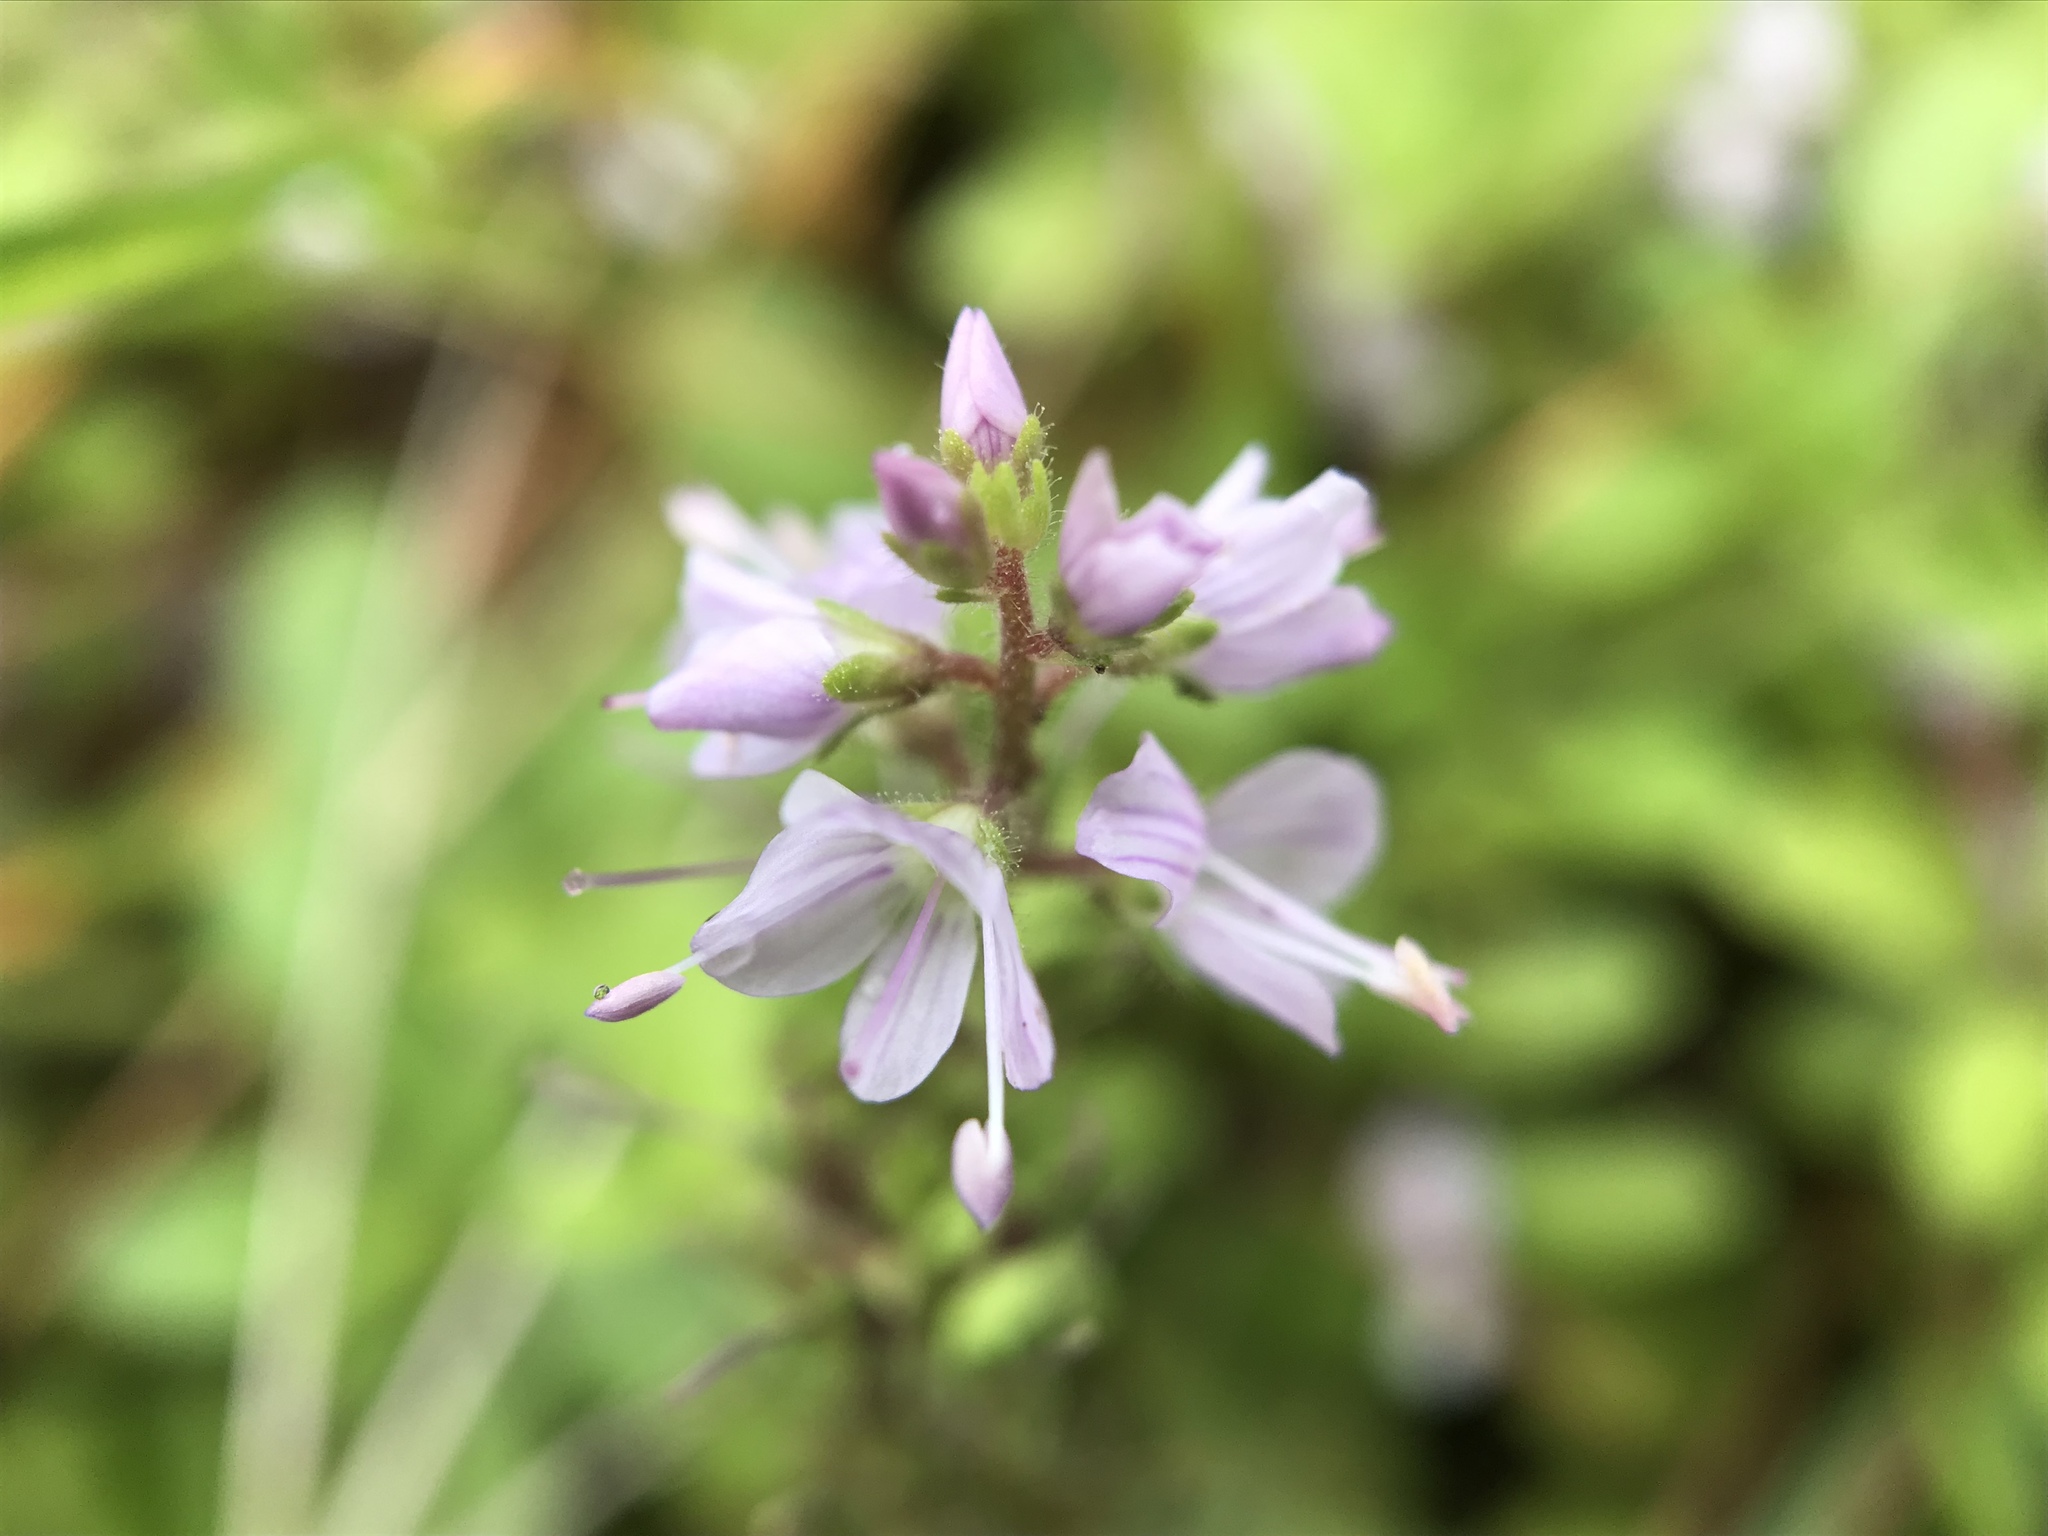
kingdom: Plantae
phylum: Tracheophyta
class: Magnoliopsida
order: Lamiales
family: Plantaginaceae
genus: Veronica
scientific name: Veronica officinalis
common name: Common speedwell
